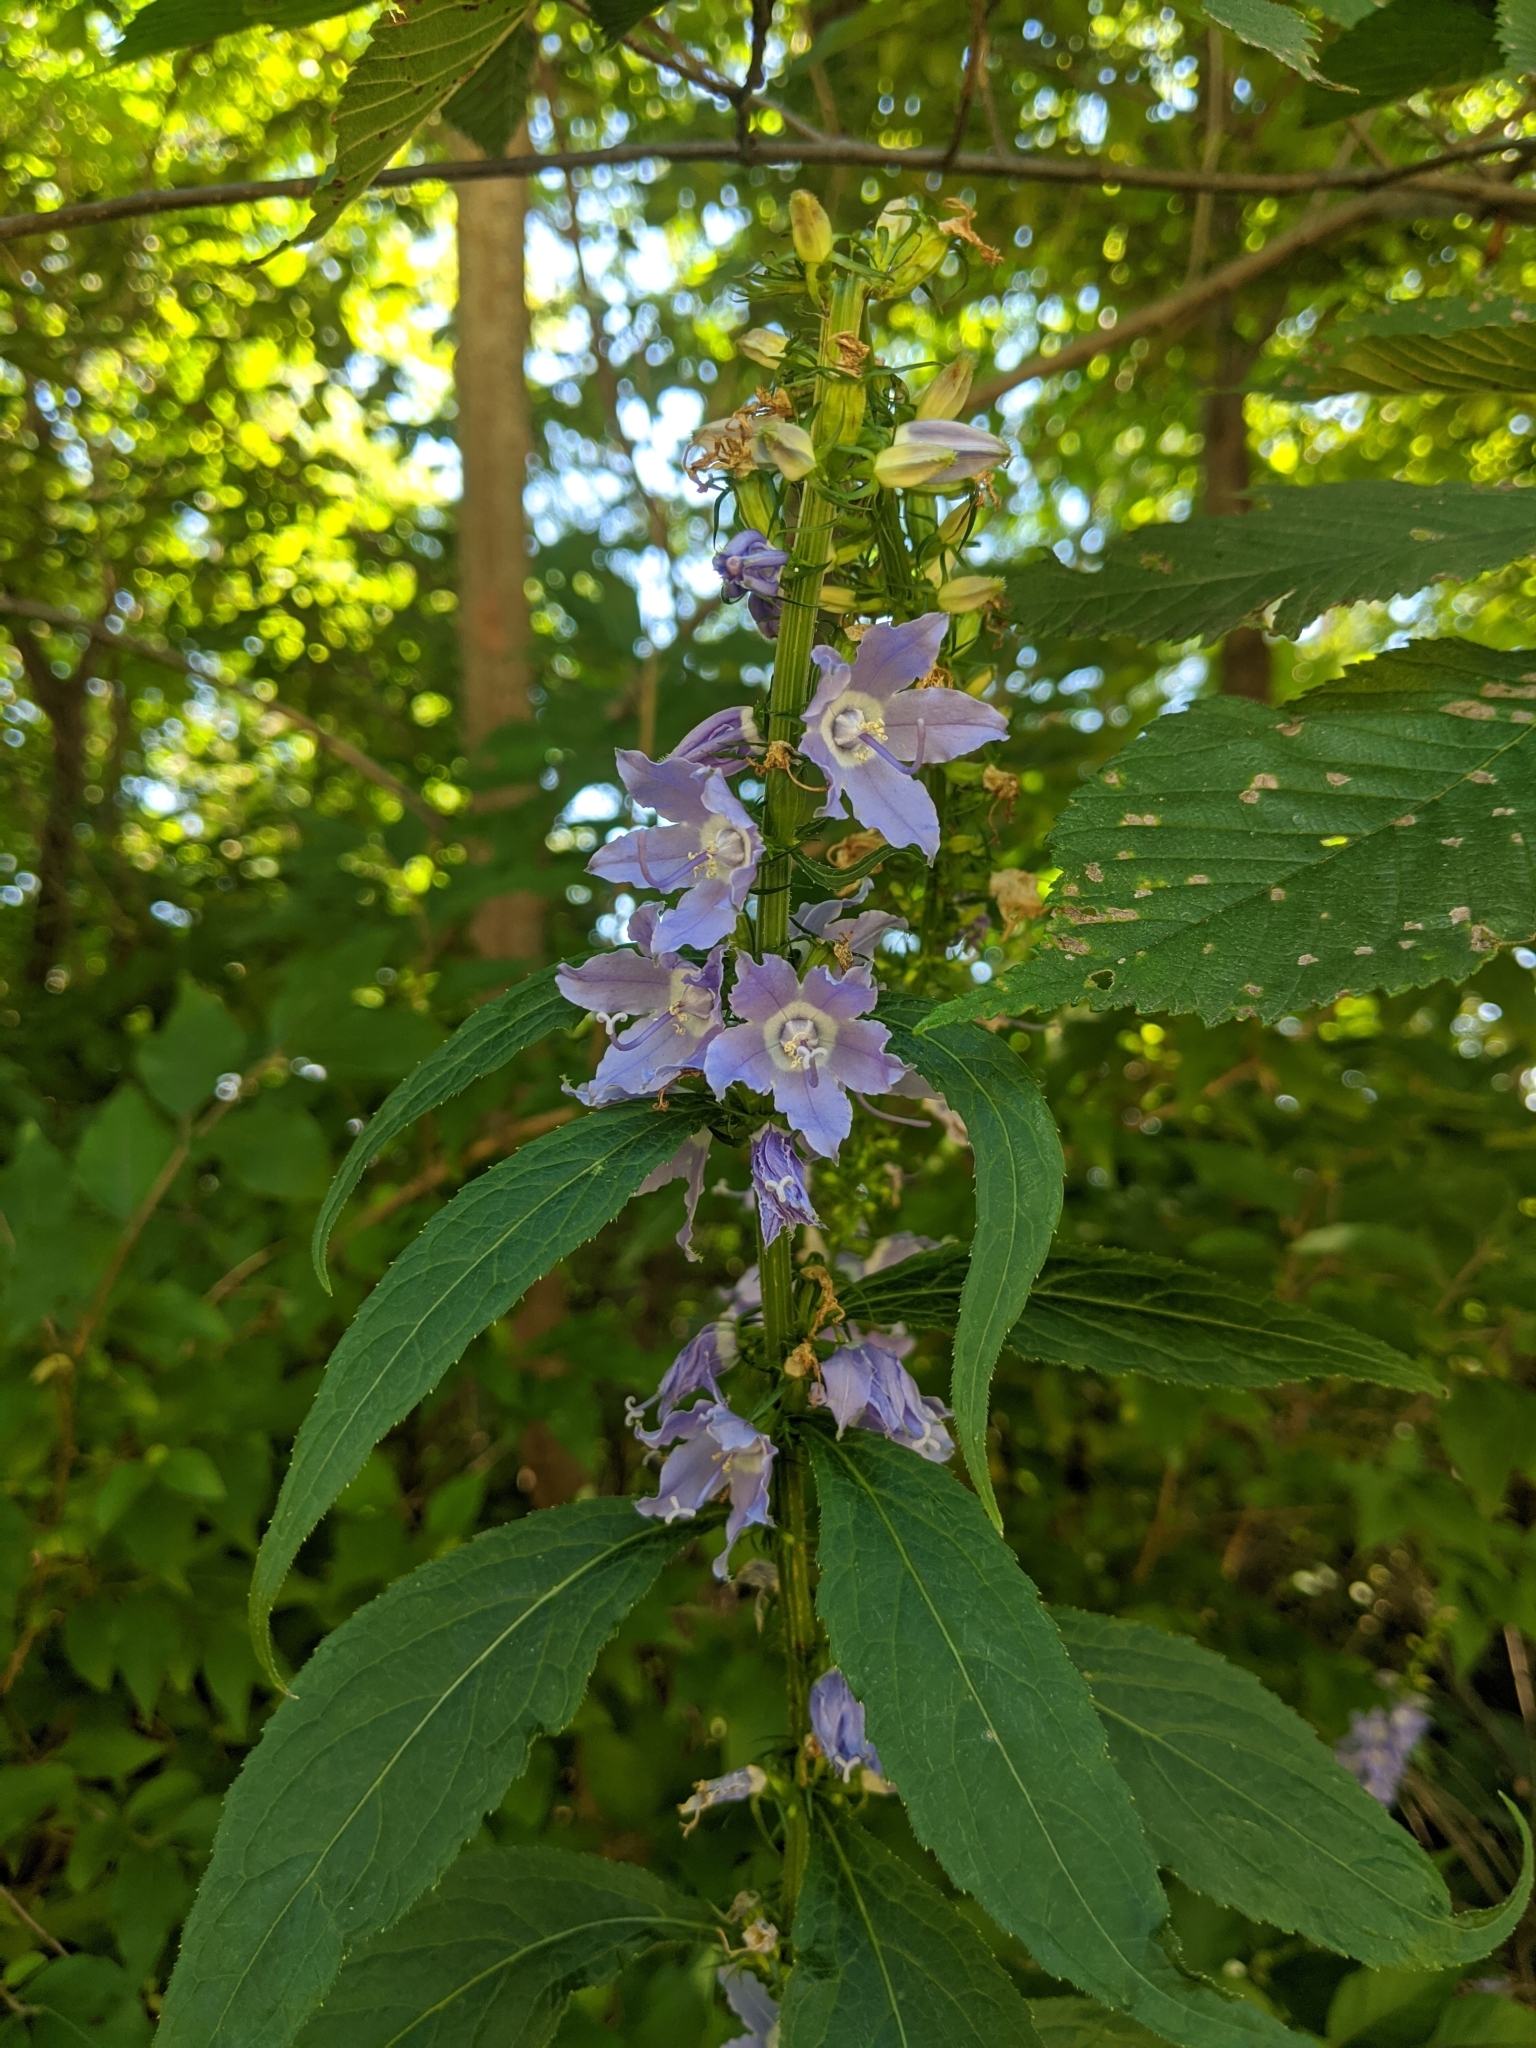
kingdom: Plantae
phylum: Tracheophyta
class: Magnoliopsida
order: Asterales
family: Campanulaceae
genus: Campanulastrum
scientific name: Campanulastrum americanum
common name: American bellflower
